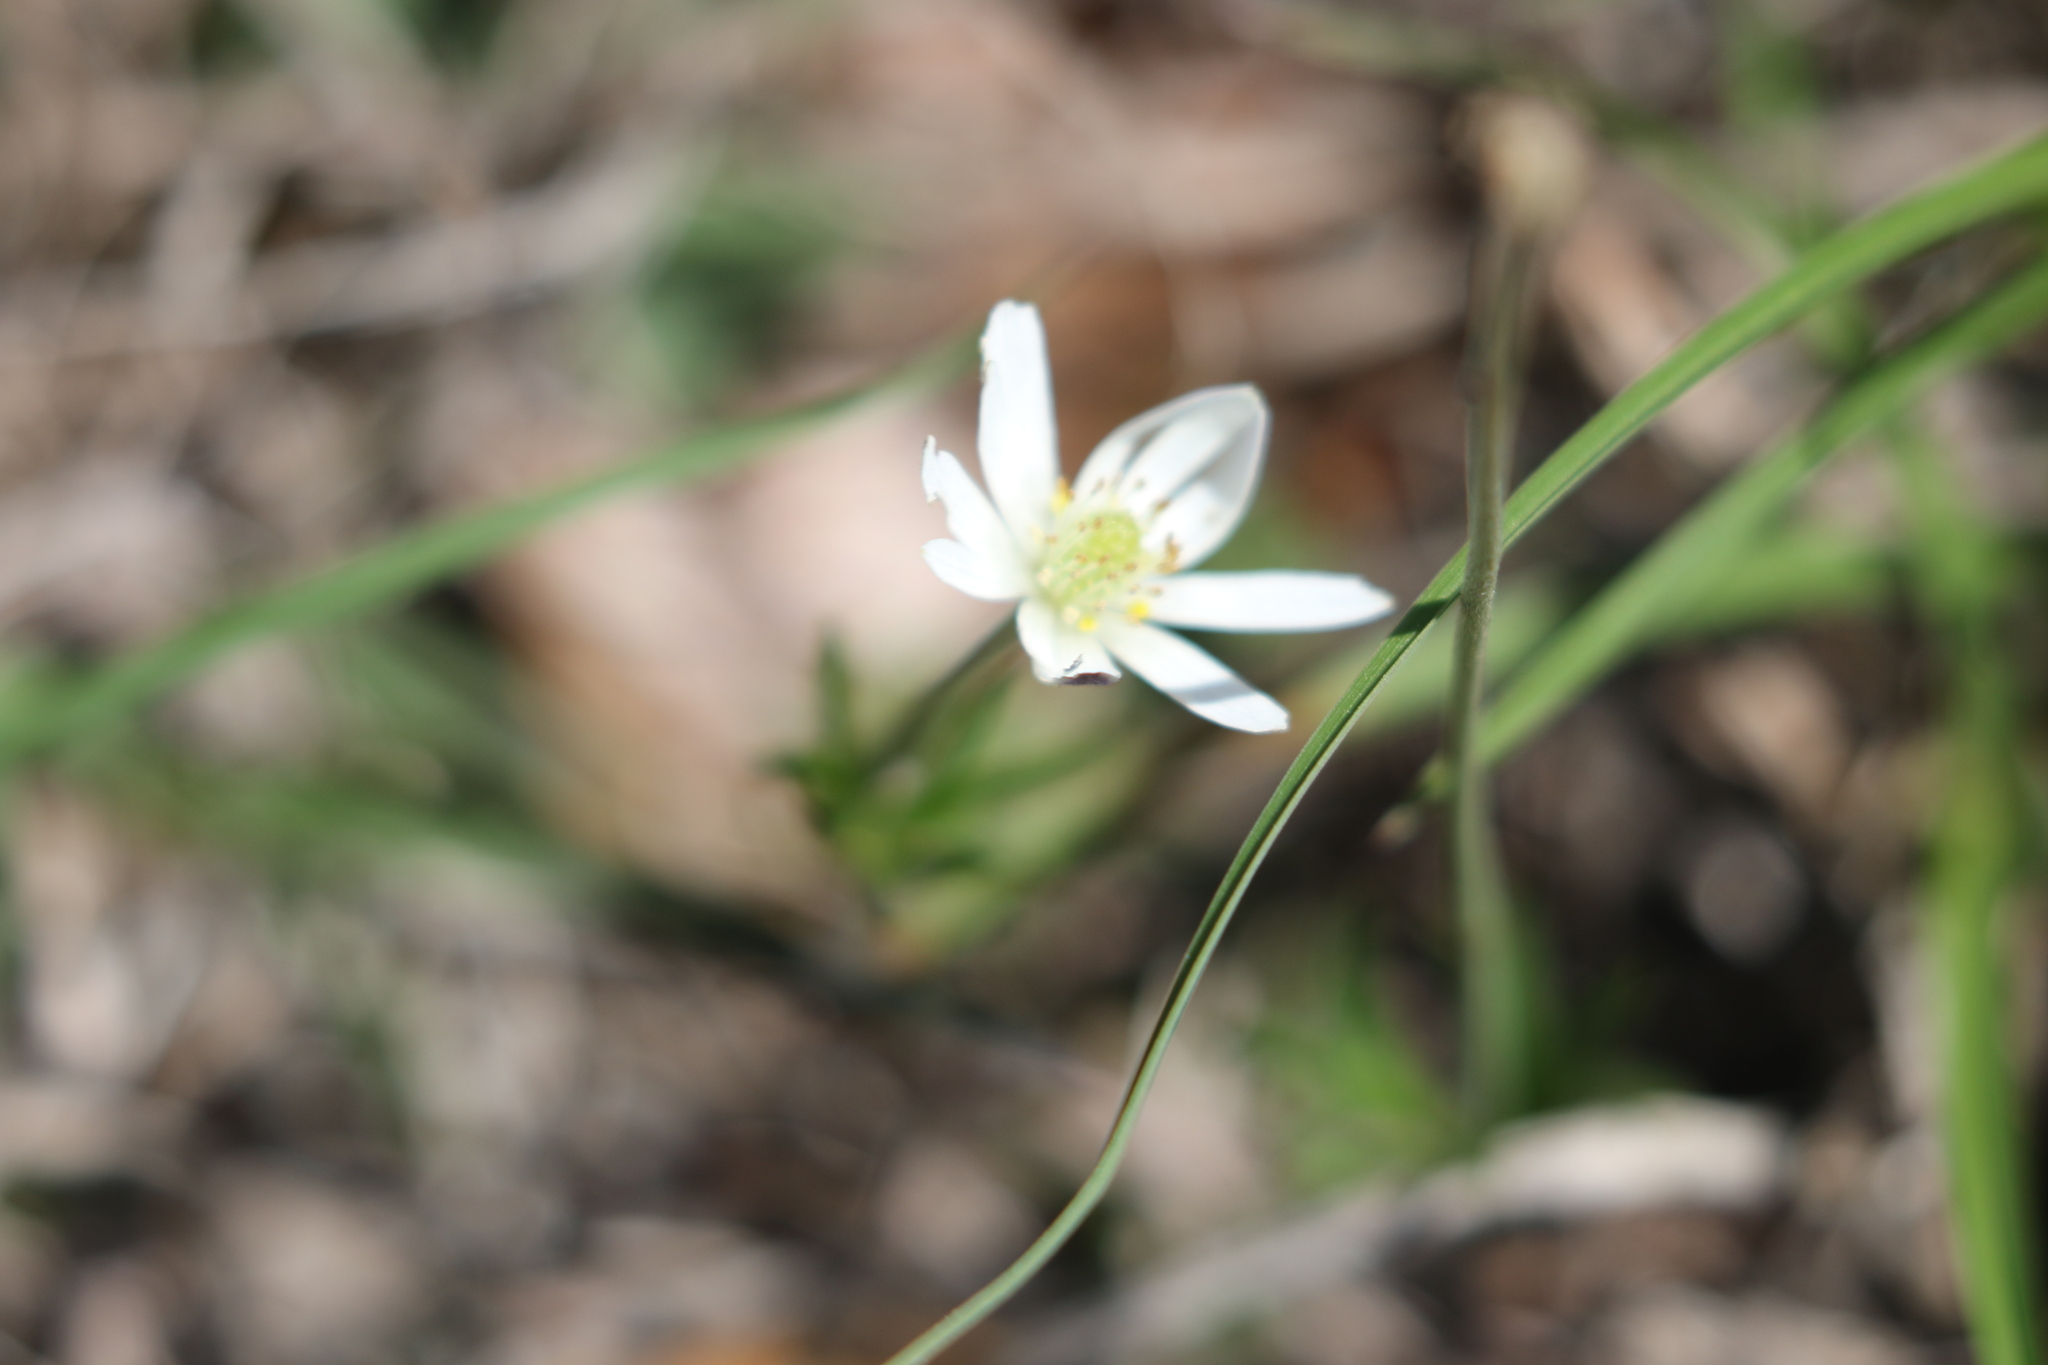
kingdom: Plantae
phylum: Tracheophyta
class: Magnoliopsida
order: Ranunculales
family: Ranunculaceae
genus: Anemone
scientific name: Anemone berlandieri
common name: Ten-petal anemone
